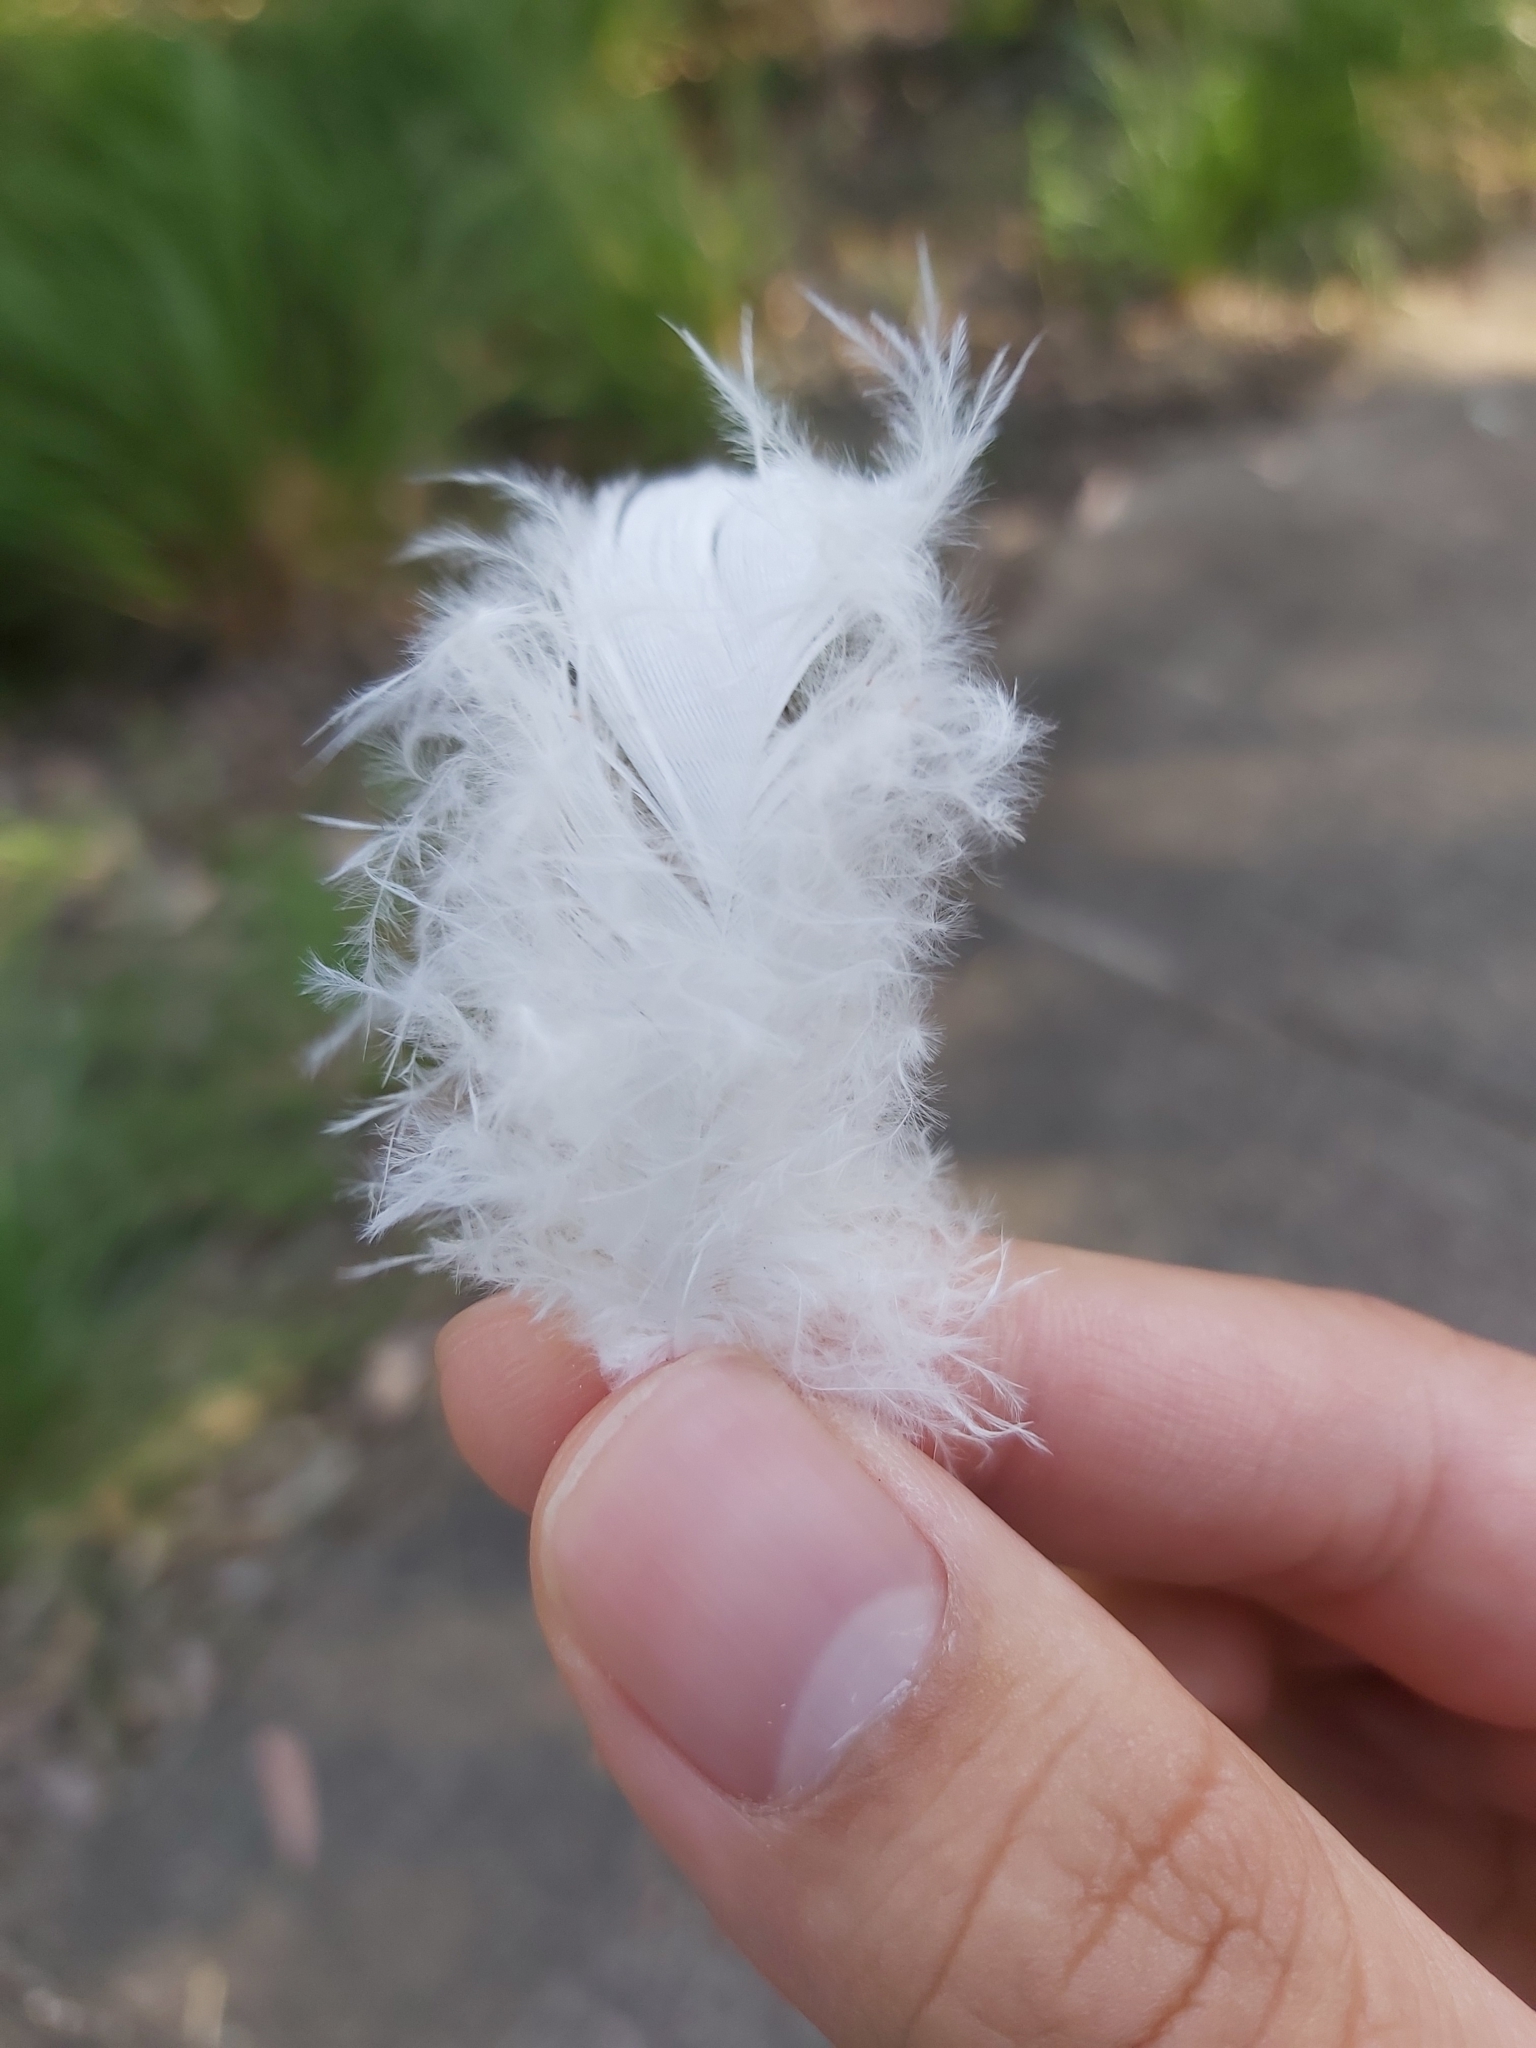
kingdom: Animalia
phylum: Chordata
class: Aves
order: Psittaciformes
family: Psittacidae
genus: Cacatua
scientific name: Cacatua galerita
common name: Sulphur-crested cockatoo
